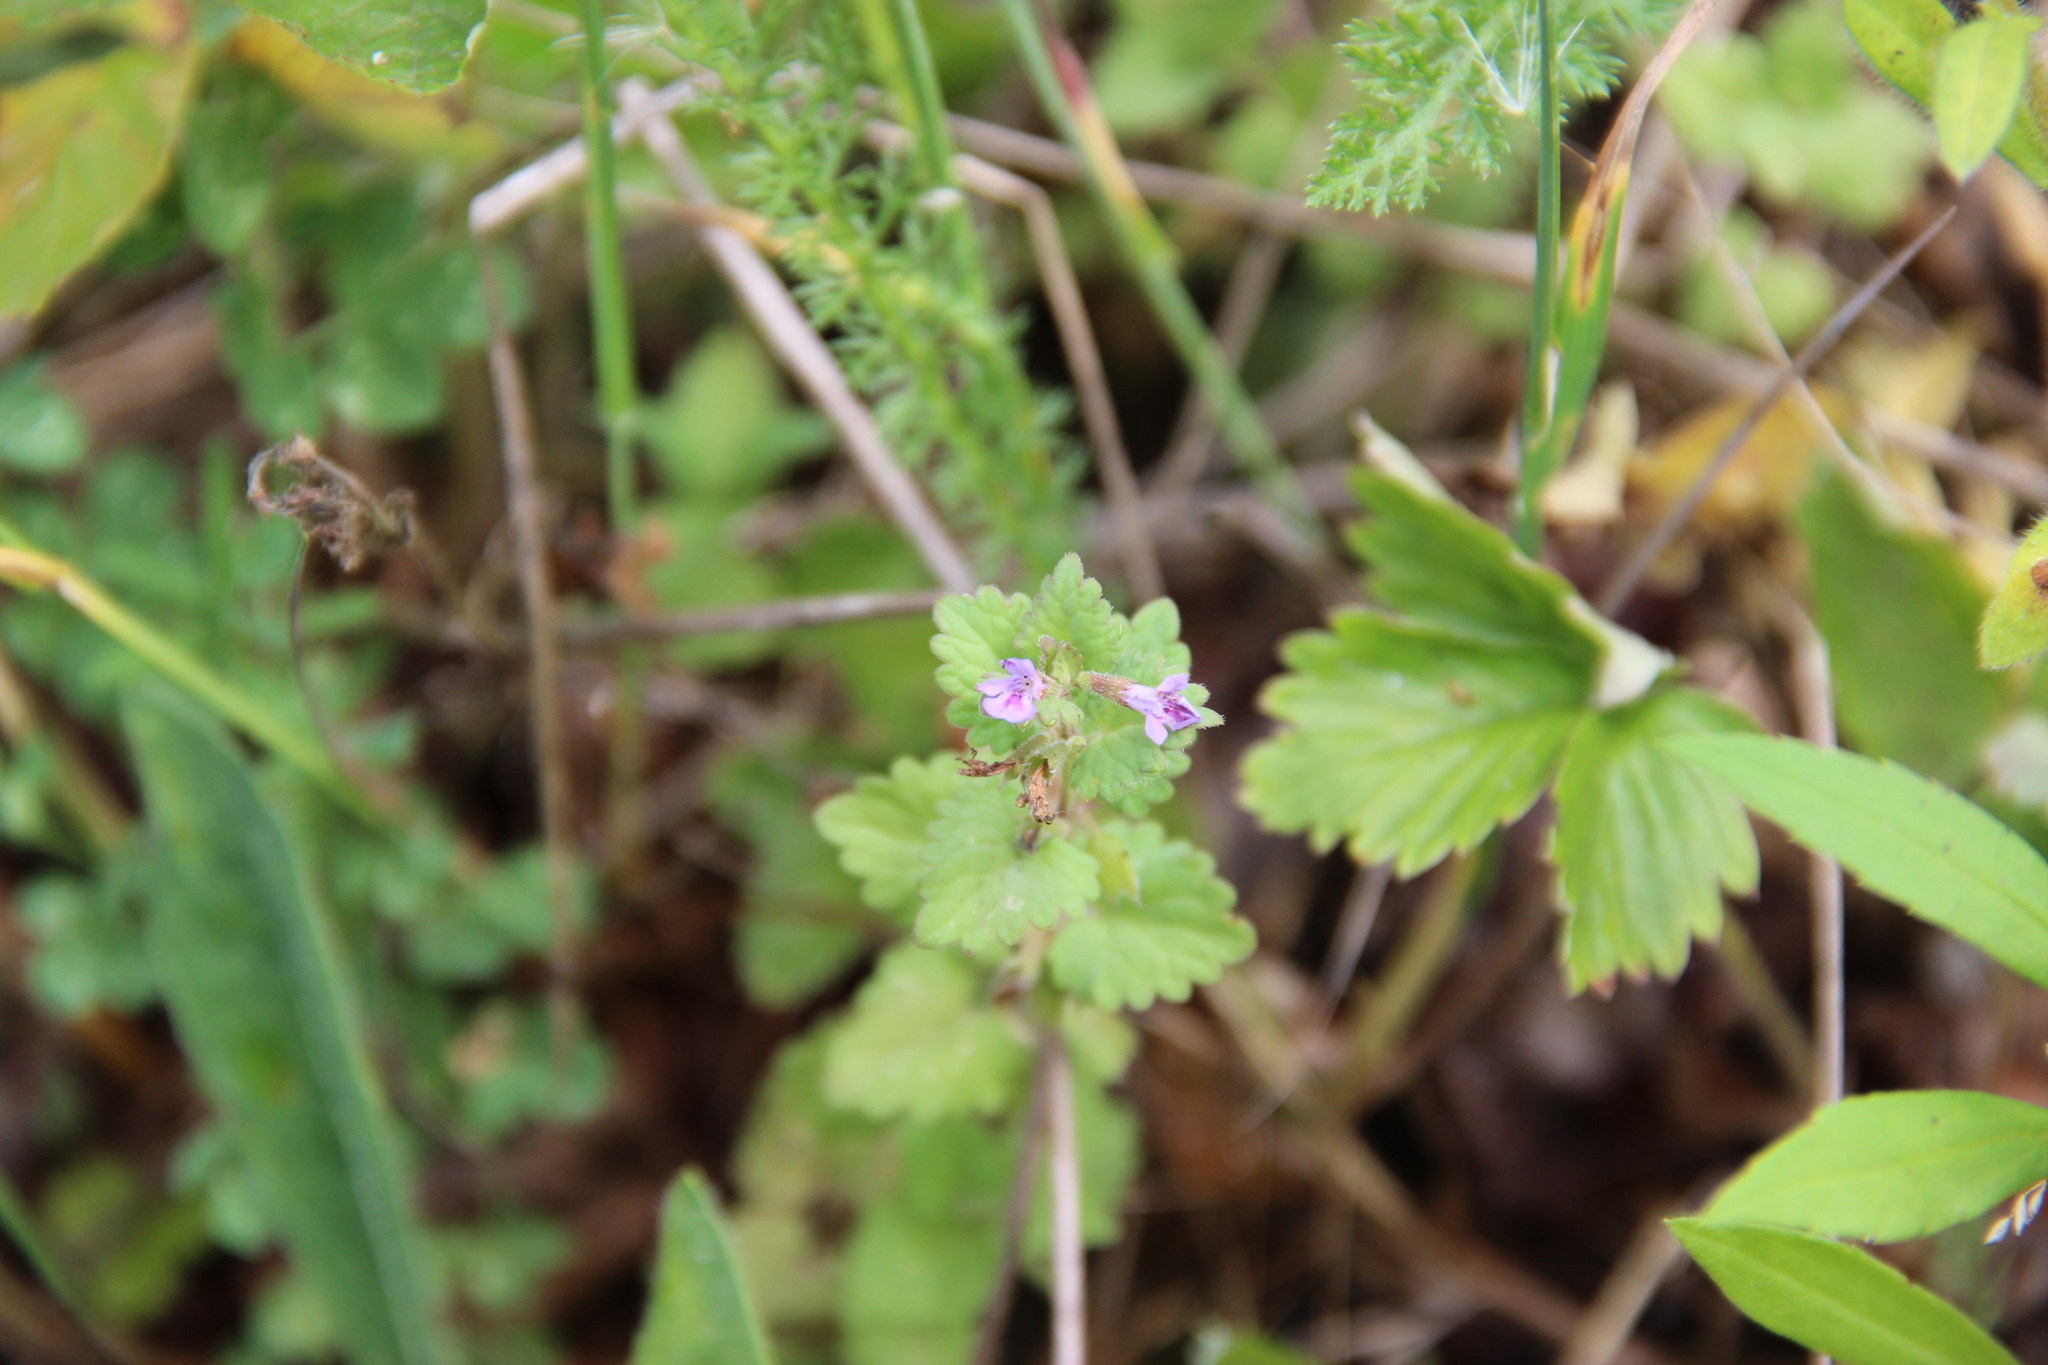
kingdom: Plantae
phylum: Tracheophyta
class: Magnoliopsida
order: Lamiales
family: Lamiaceae
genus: Glechoma
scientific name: Glechoma hederacea
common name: Ground ivy
